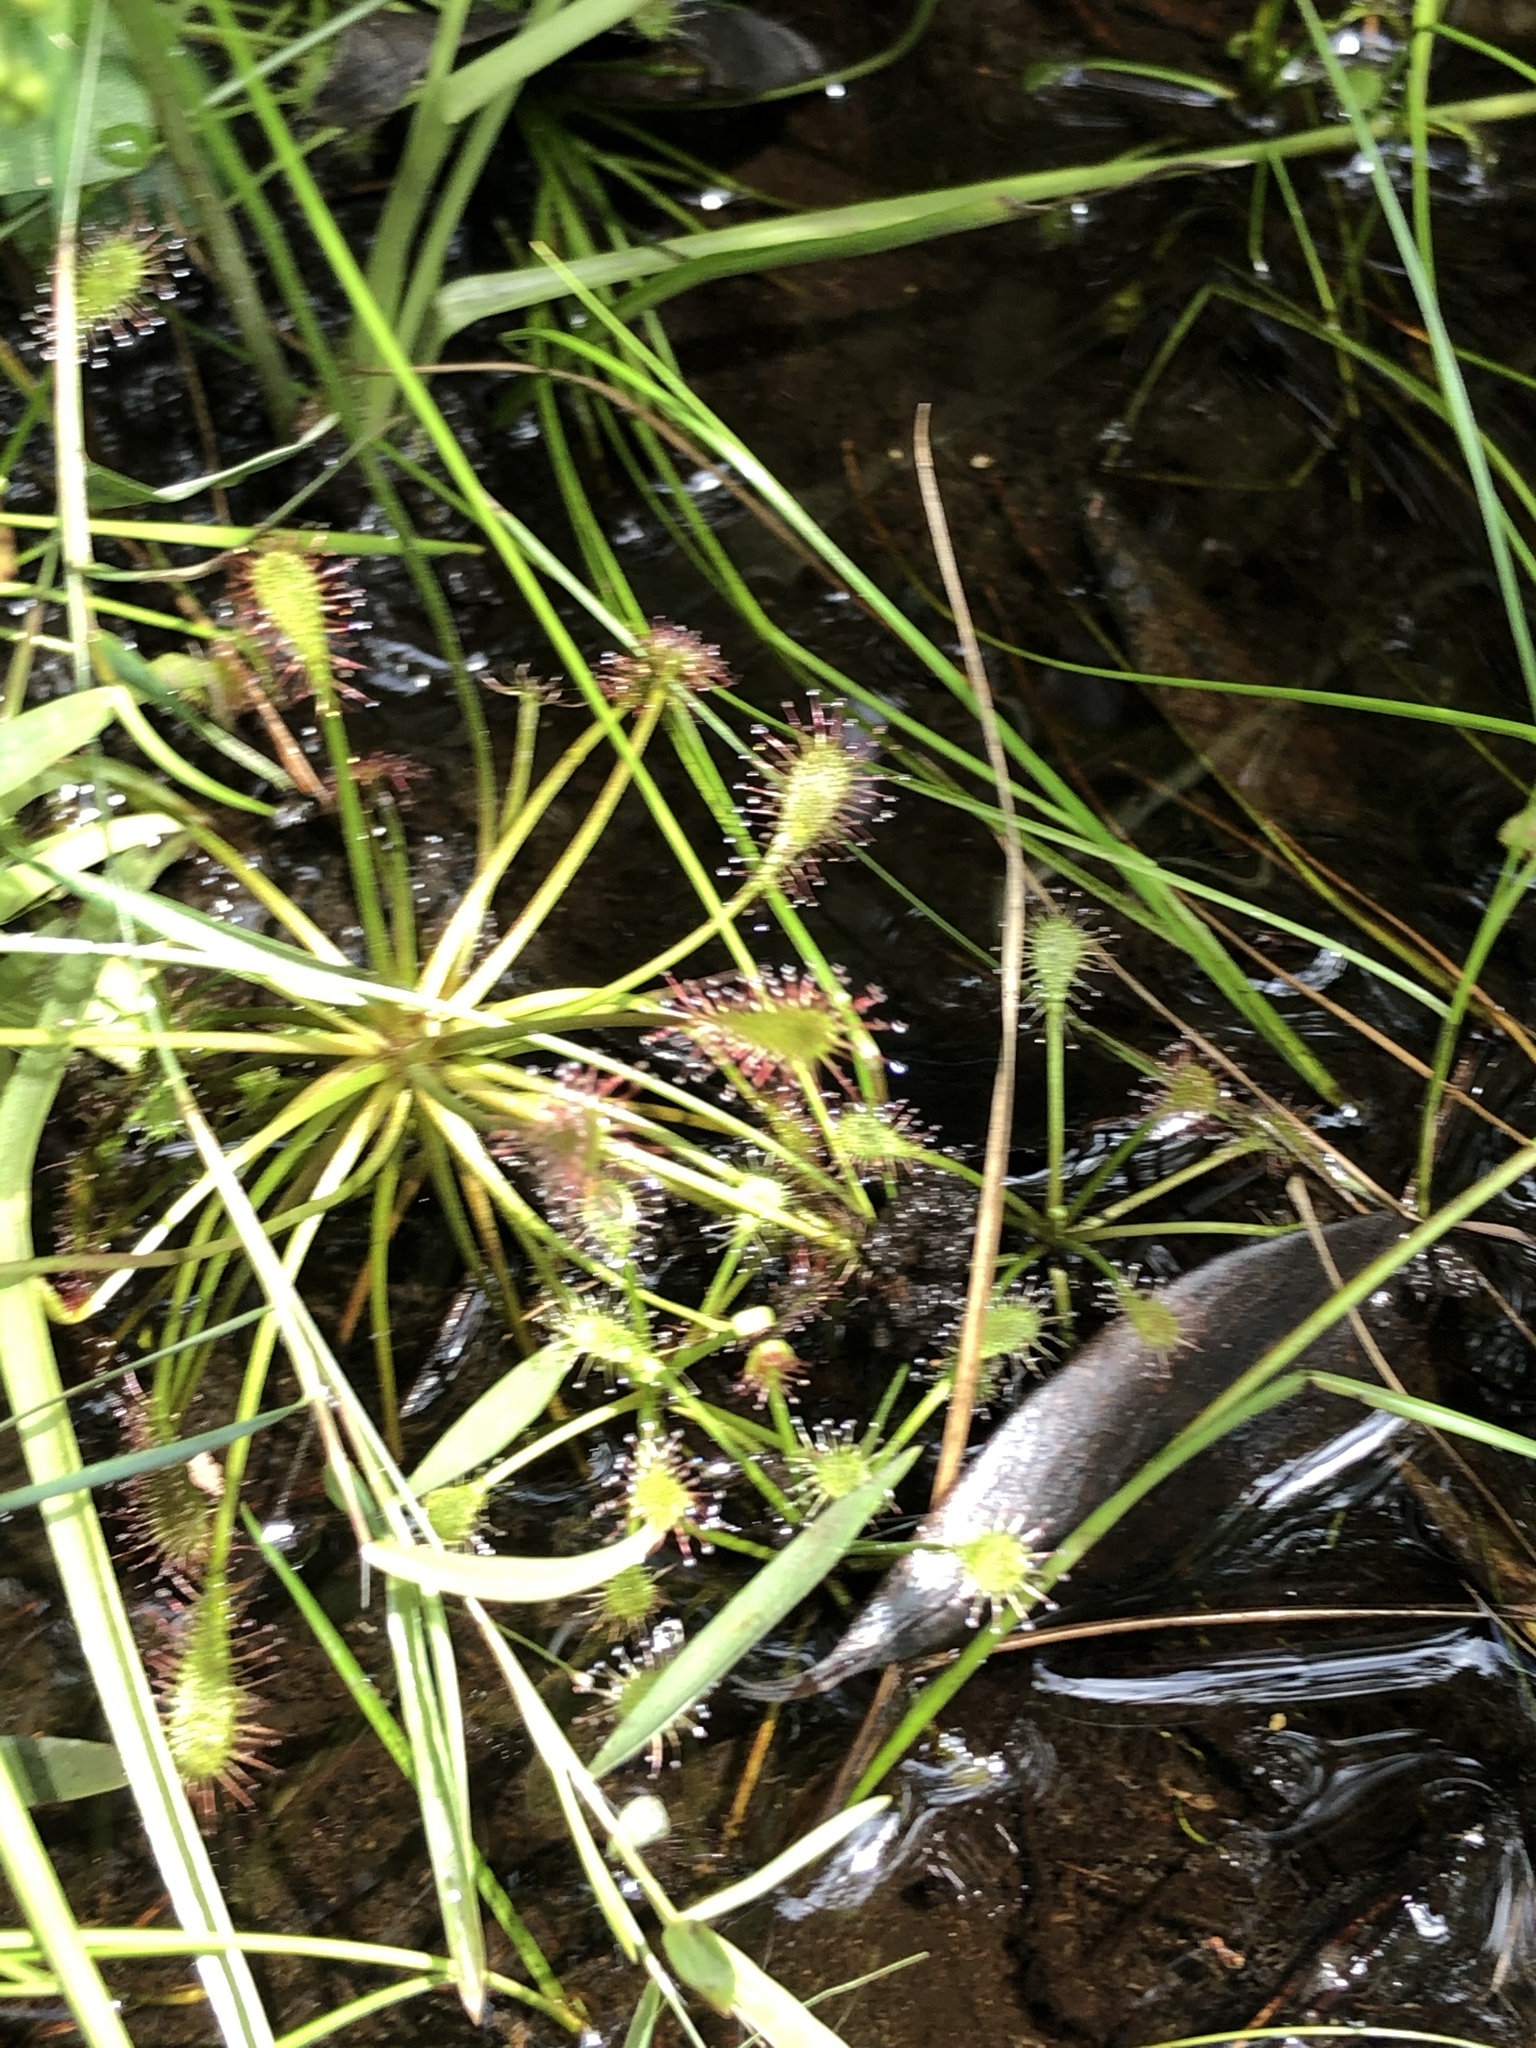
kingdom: Plantae
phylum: Tracheophyta
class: Magnoliopsida
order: Caryophyllales
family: Droseraceae
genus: Drosera
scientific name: Drosera intermedia
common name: Oblong-leaved sundew
